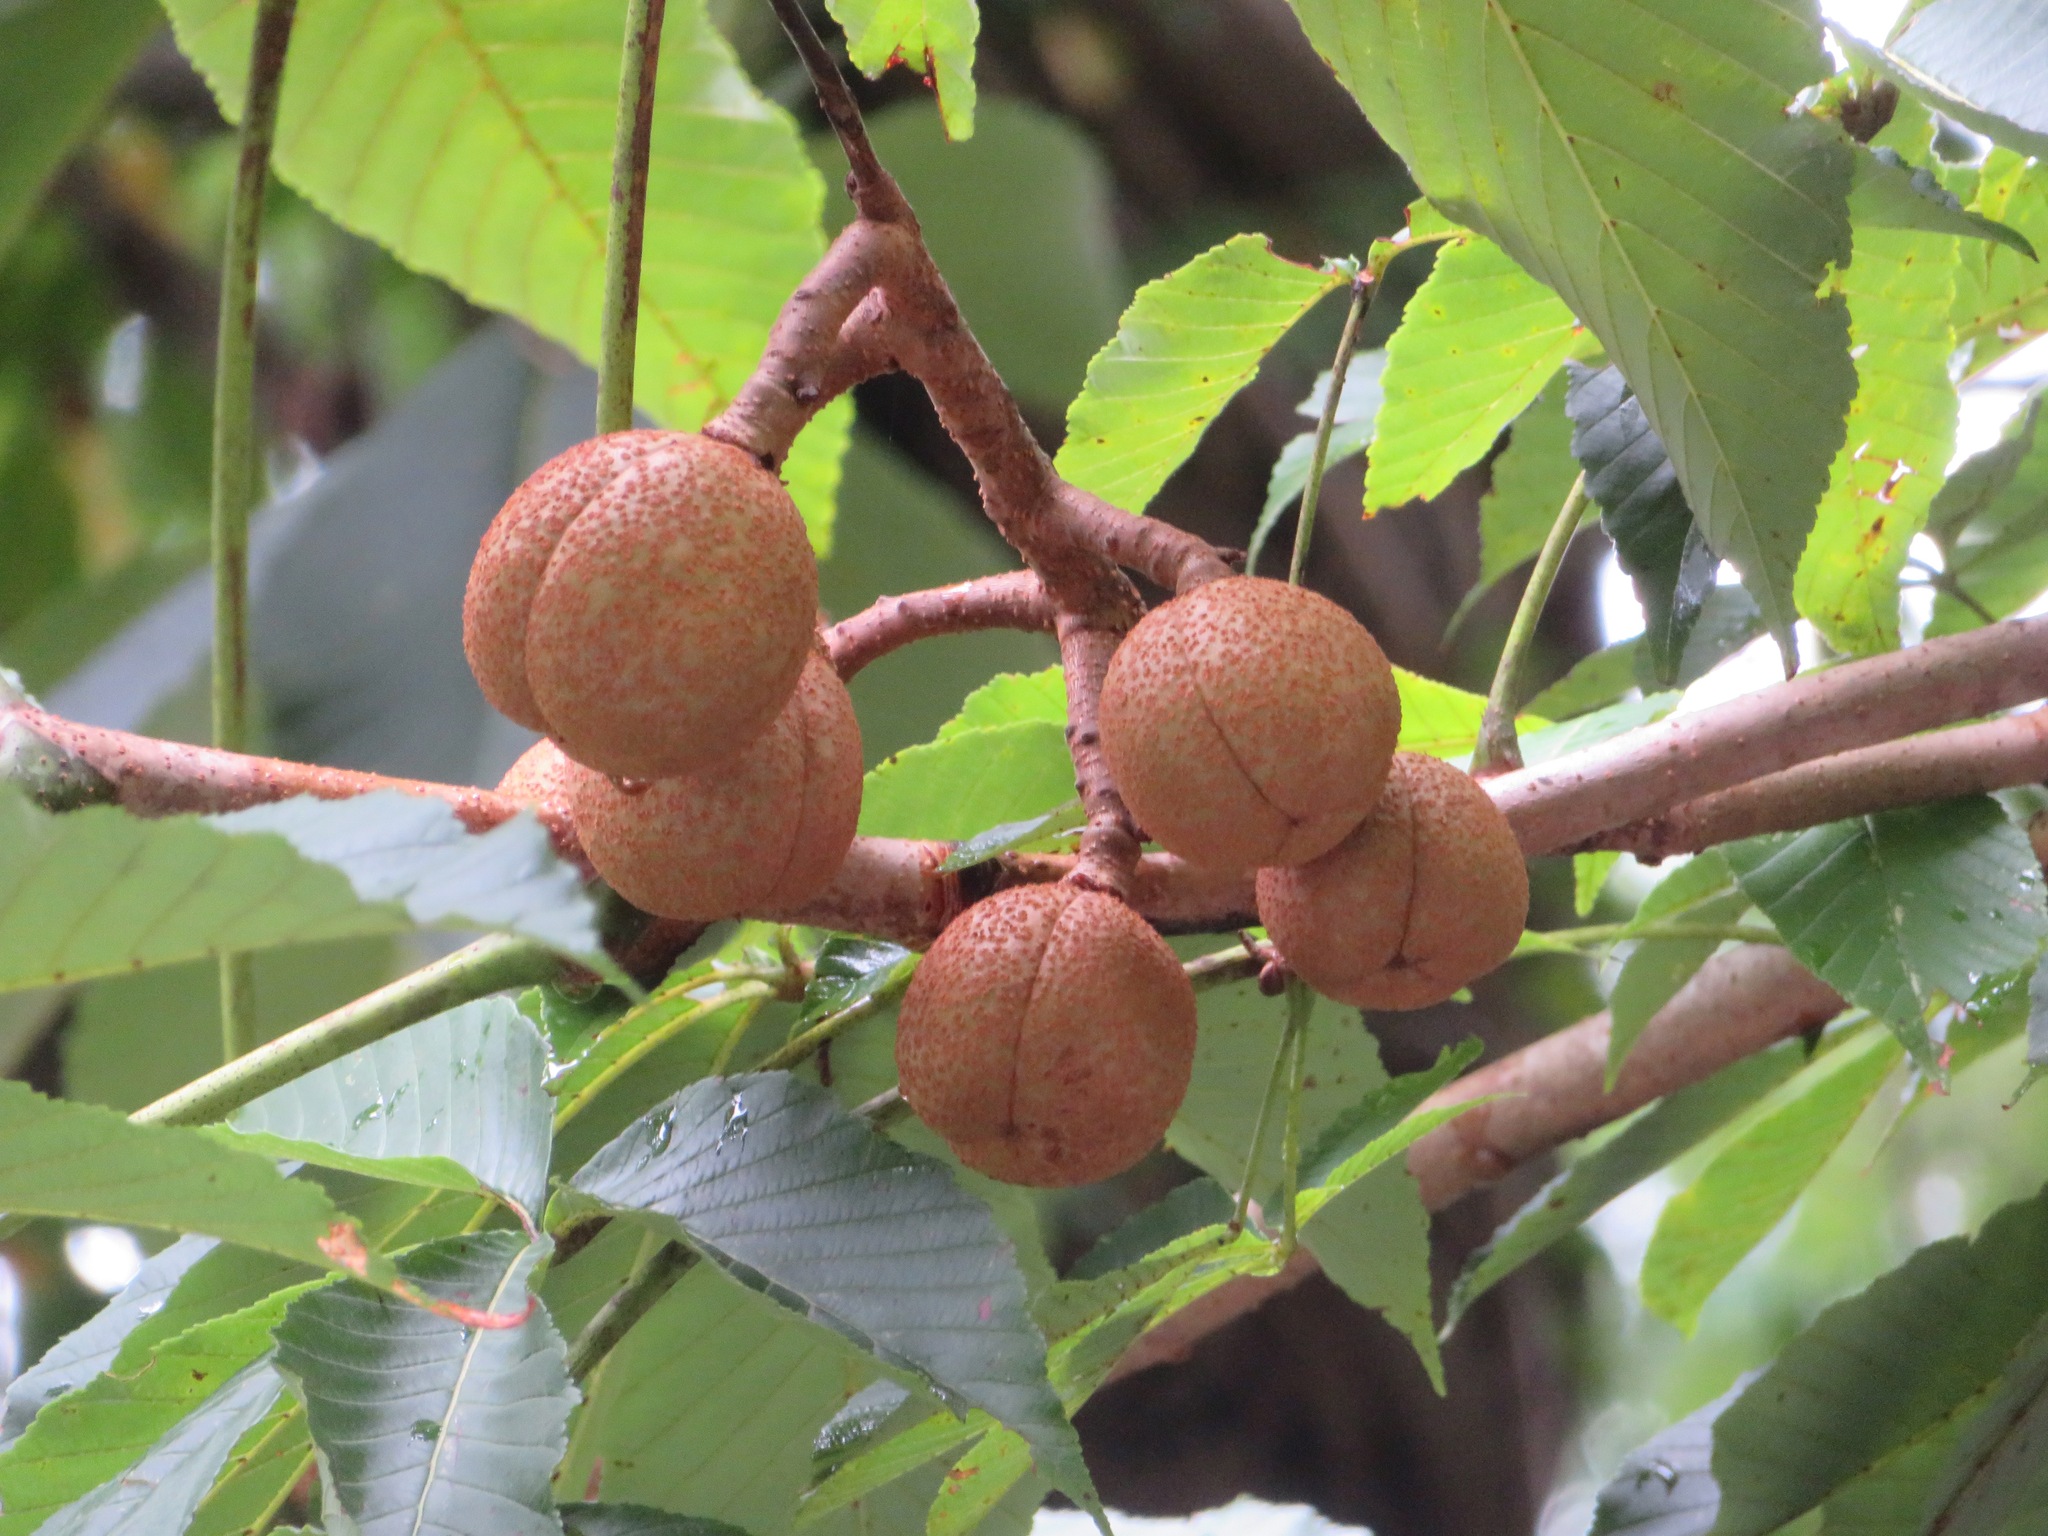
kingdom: Plantae
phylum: Tracheophyta
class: Magnoliopsida
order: Sapindales
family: Sapindaceae
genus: Aesculus
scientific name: Aesculus turbinata
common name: Japanese horse-chestnut
